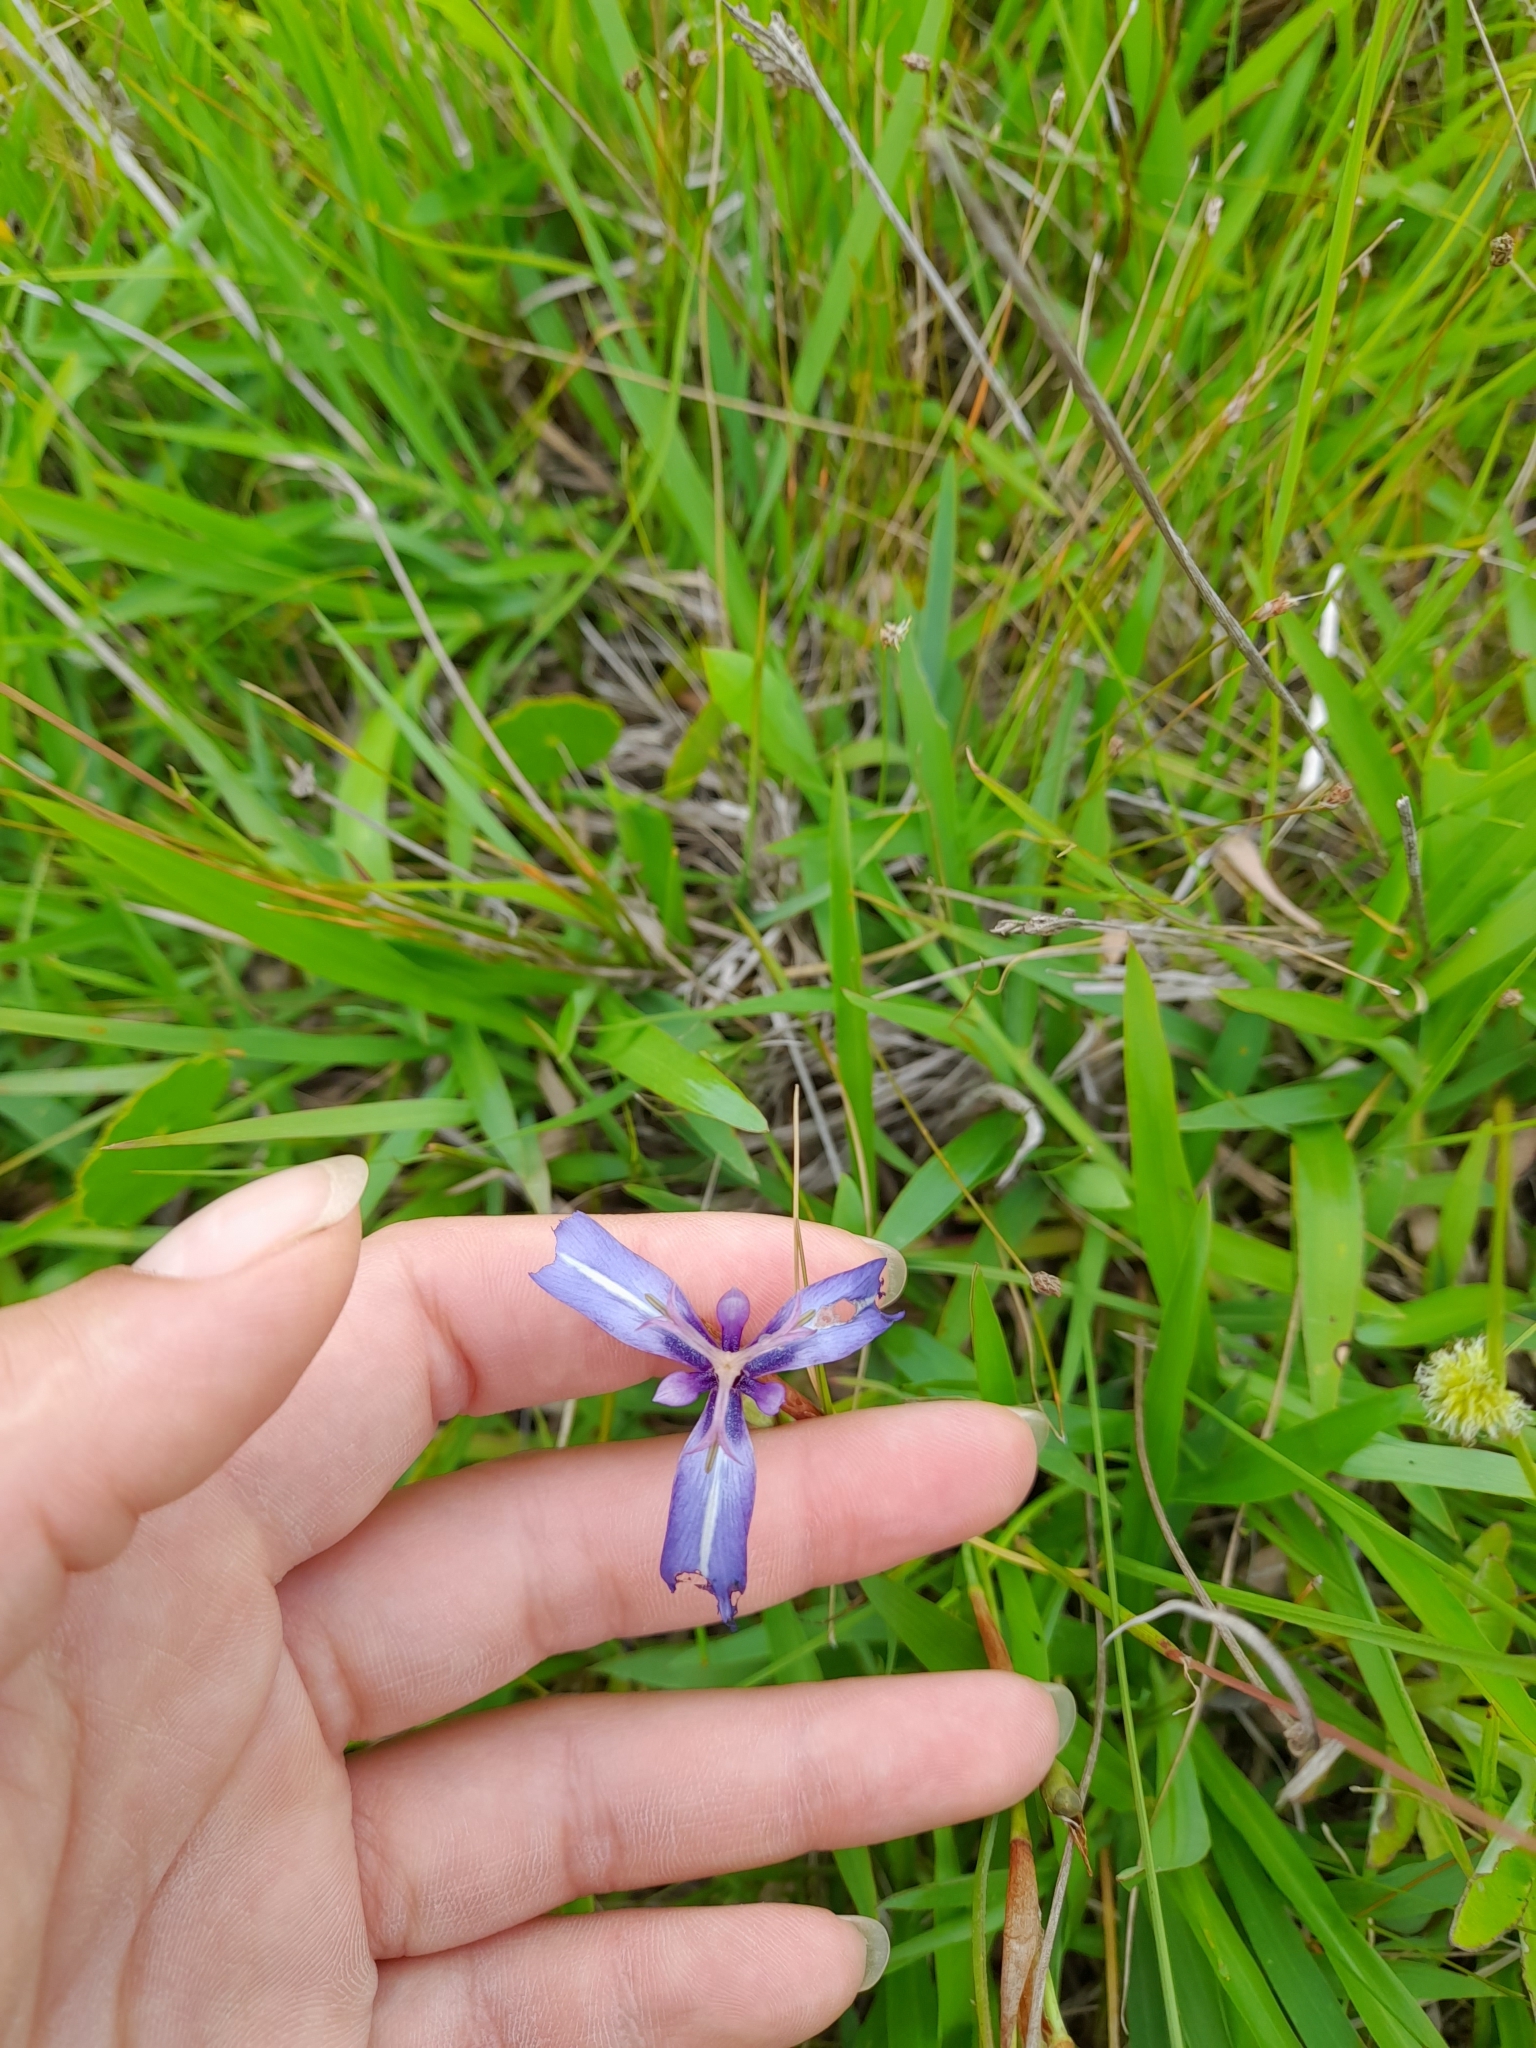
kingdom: Plantae
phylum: Tracheophyta
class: Liliopsida
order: Asparagales
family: Iridaceae
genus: Herbertia
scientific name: Herbertia pulchella
